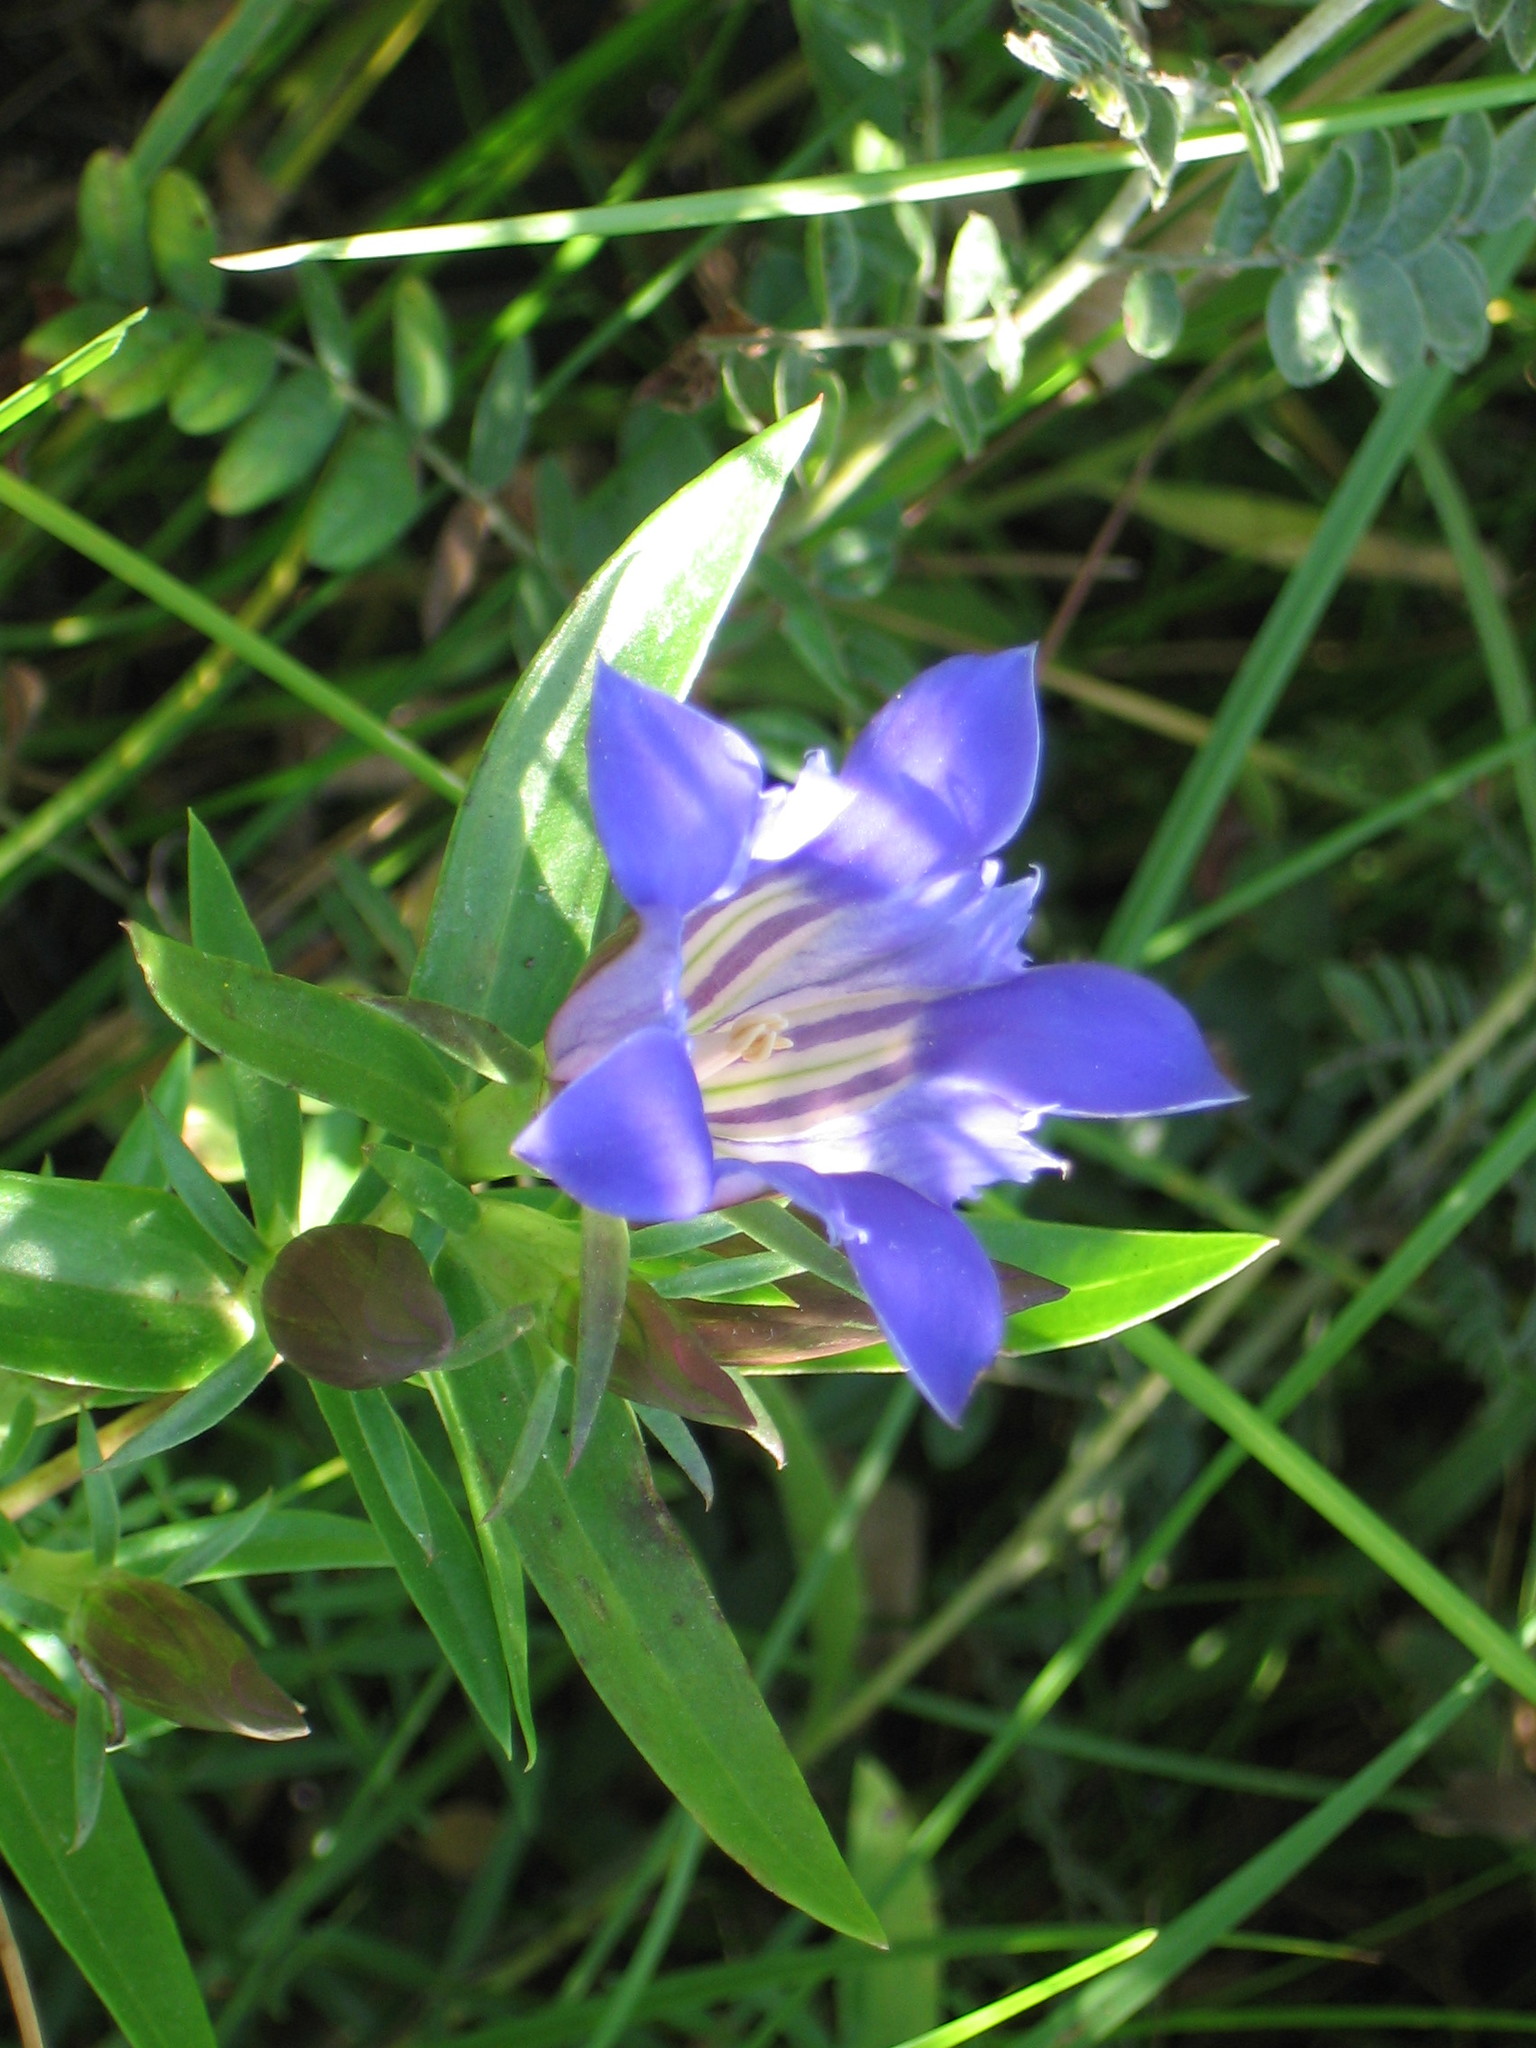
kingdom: Plantae
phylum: Tracheophyta
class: Magnoliopsida
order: Gentianales
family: Gentianaceae
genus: Gentiana
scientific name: Gentiana puberulenta
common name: Downy gentian
